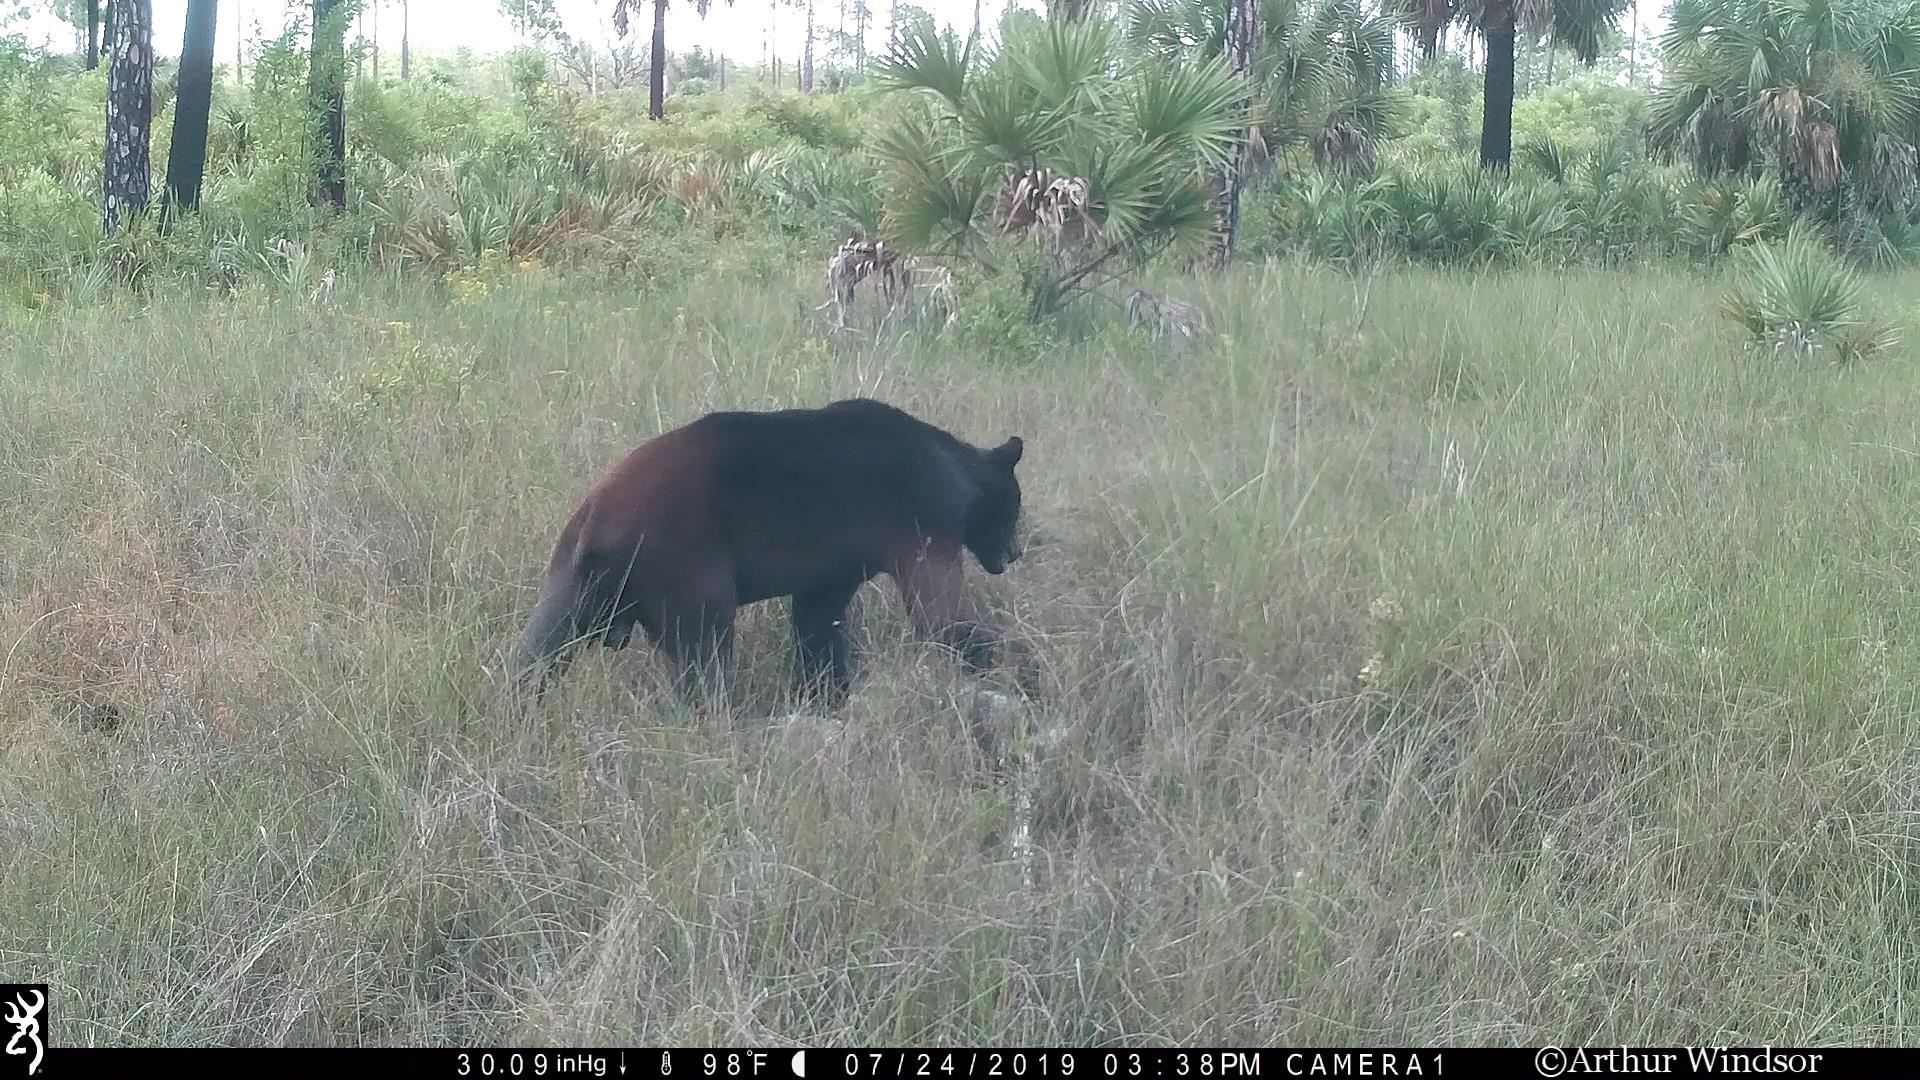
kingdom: Animalia
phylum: Chordata
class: Mammalia
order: Carnivora
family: Ursidae
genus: Ursus
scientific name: Ursus americanus
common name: American black bear
